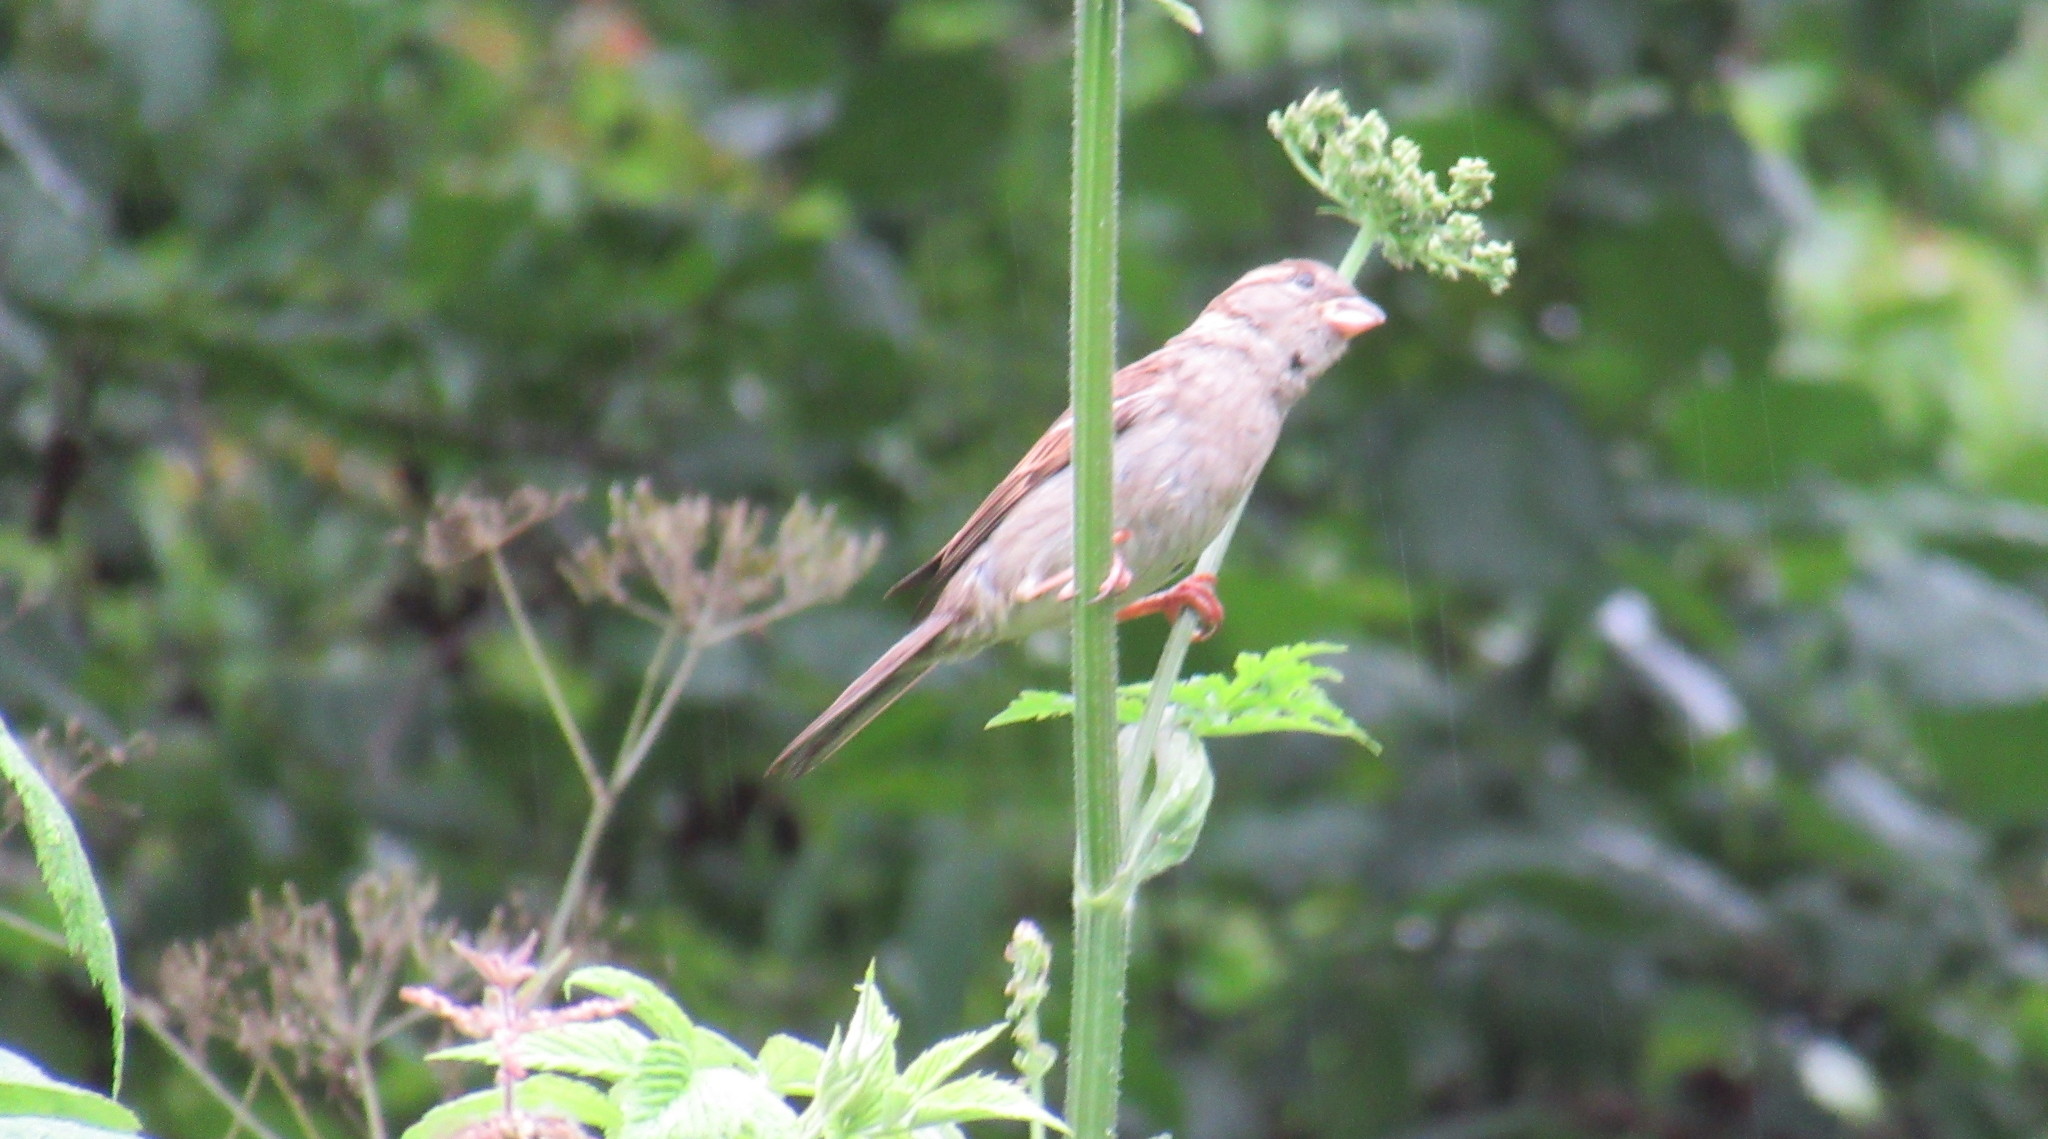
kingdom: Animalia
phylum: Chordata
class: Aves
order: Passeriformes
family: Passeridae
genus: Passer
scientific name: Passer domesticus
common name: House sparrow
